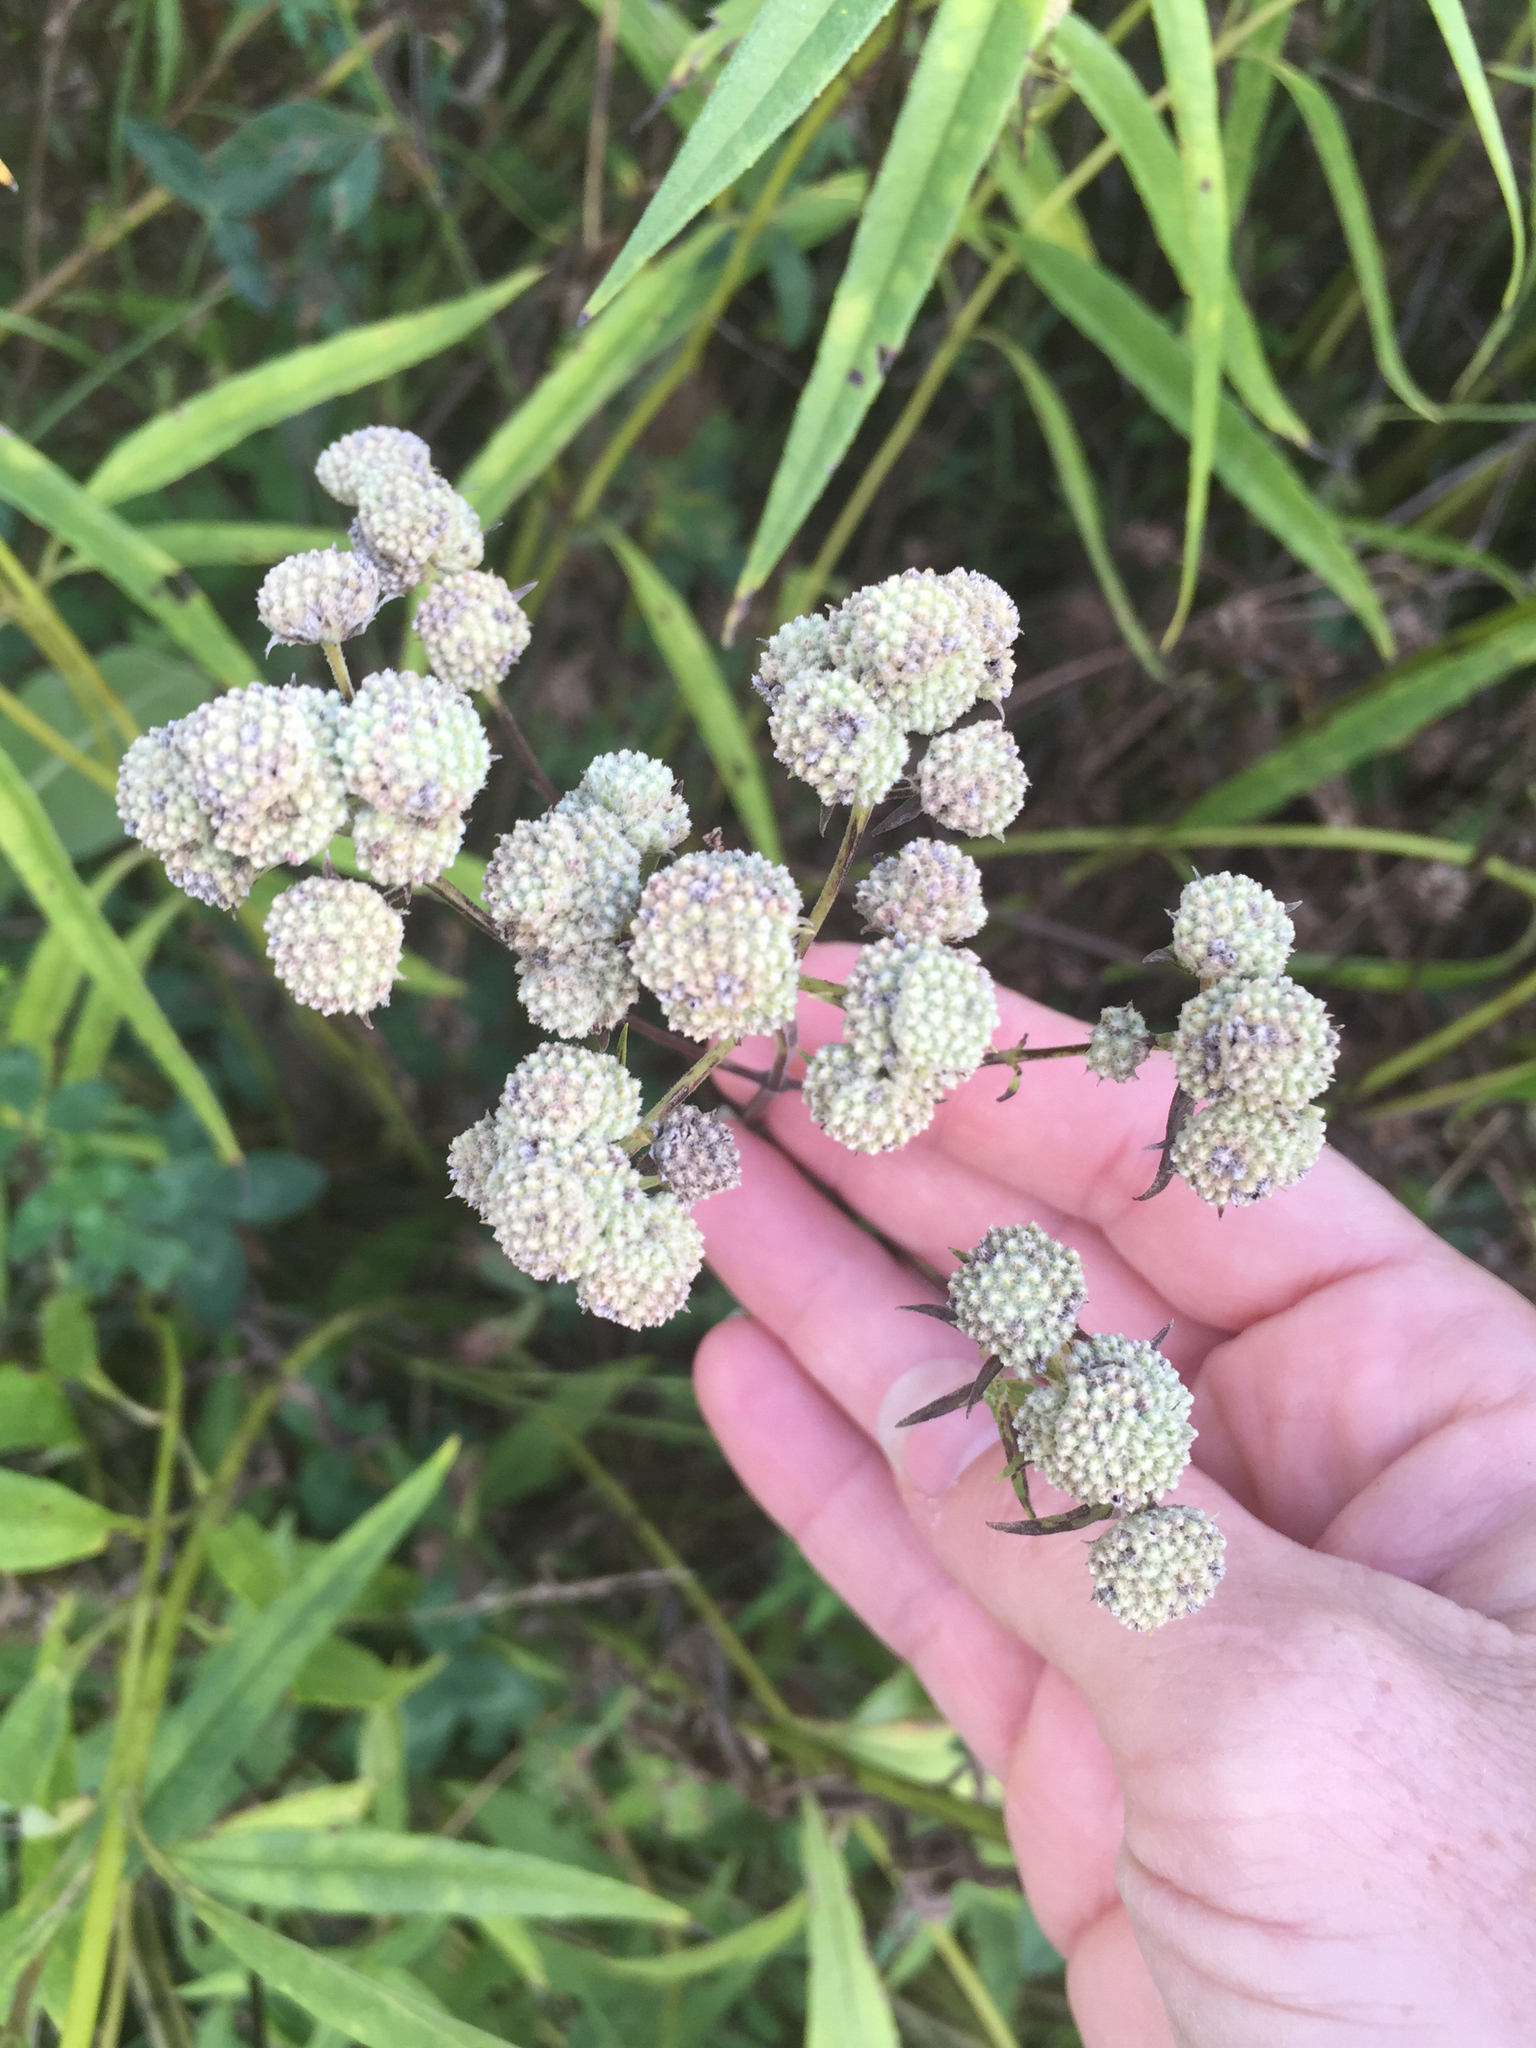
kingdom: Plantae
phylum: Tracheophyta
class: Magnoliopsida
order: Lamiales
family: Lamiaceae
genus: Pycnanthemum
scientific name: Pycnanthemum tenuifolium
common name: Narrow-leaf mountain-mint
